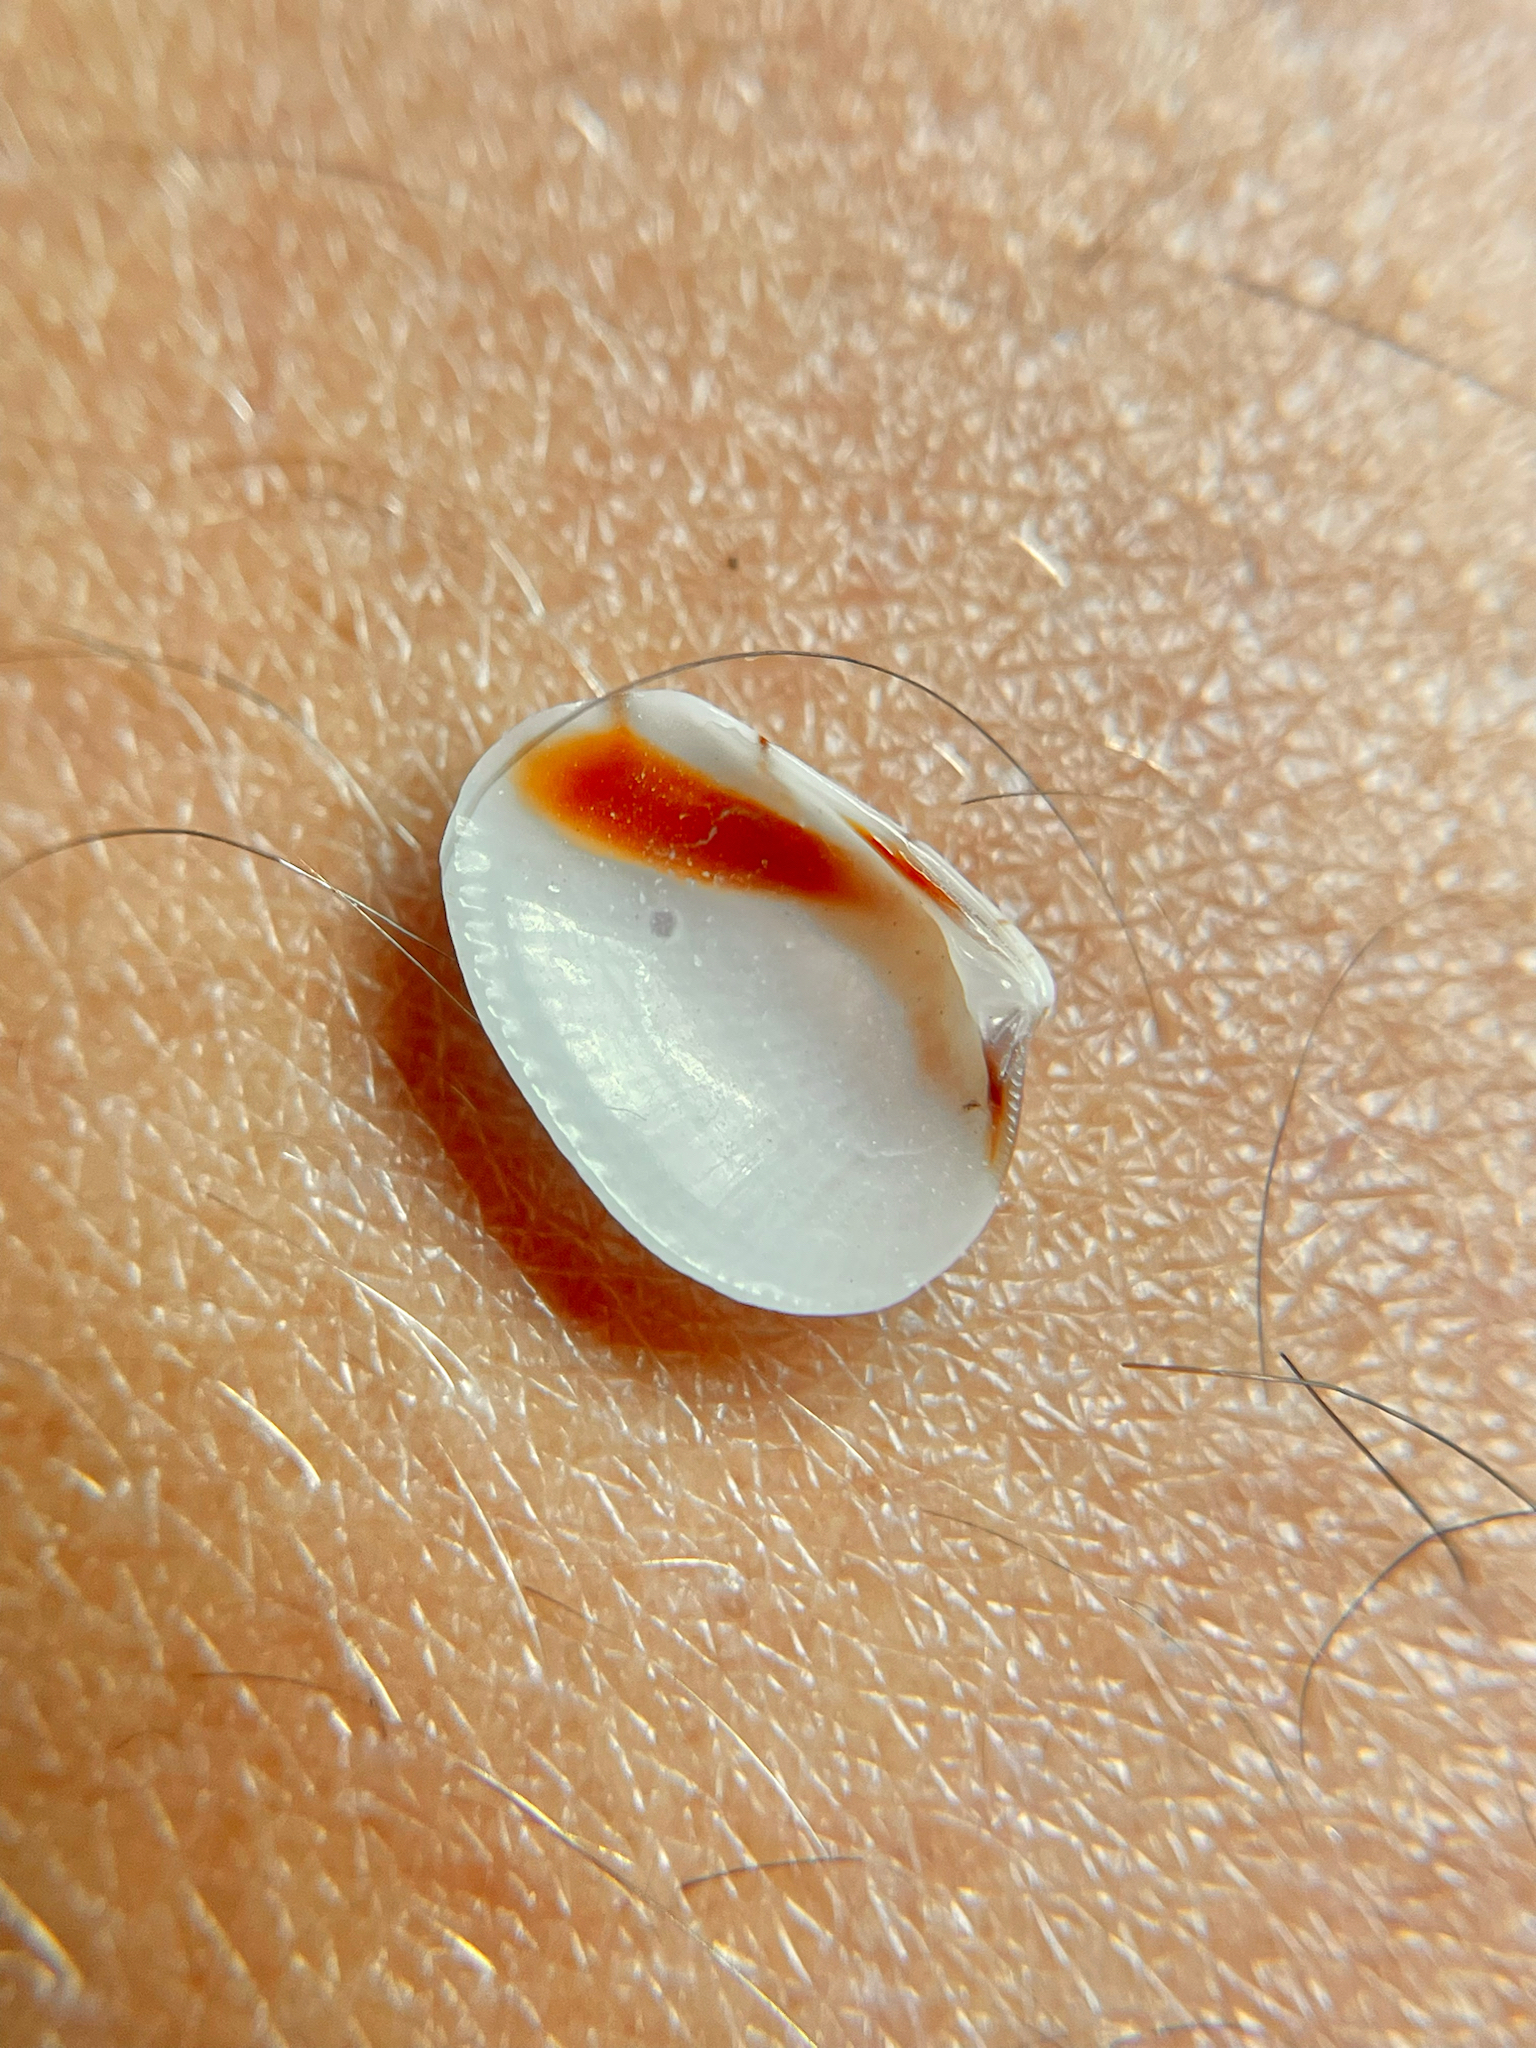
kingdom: Animalia
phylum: Mollusca
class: Bivalvia
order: Venerida
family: Veneridae
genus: Chioneryx
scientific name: Chioneryx grus
